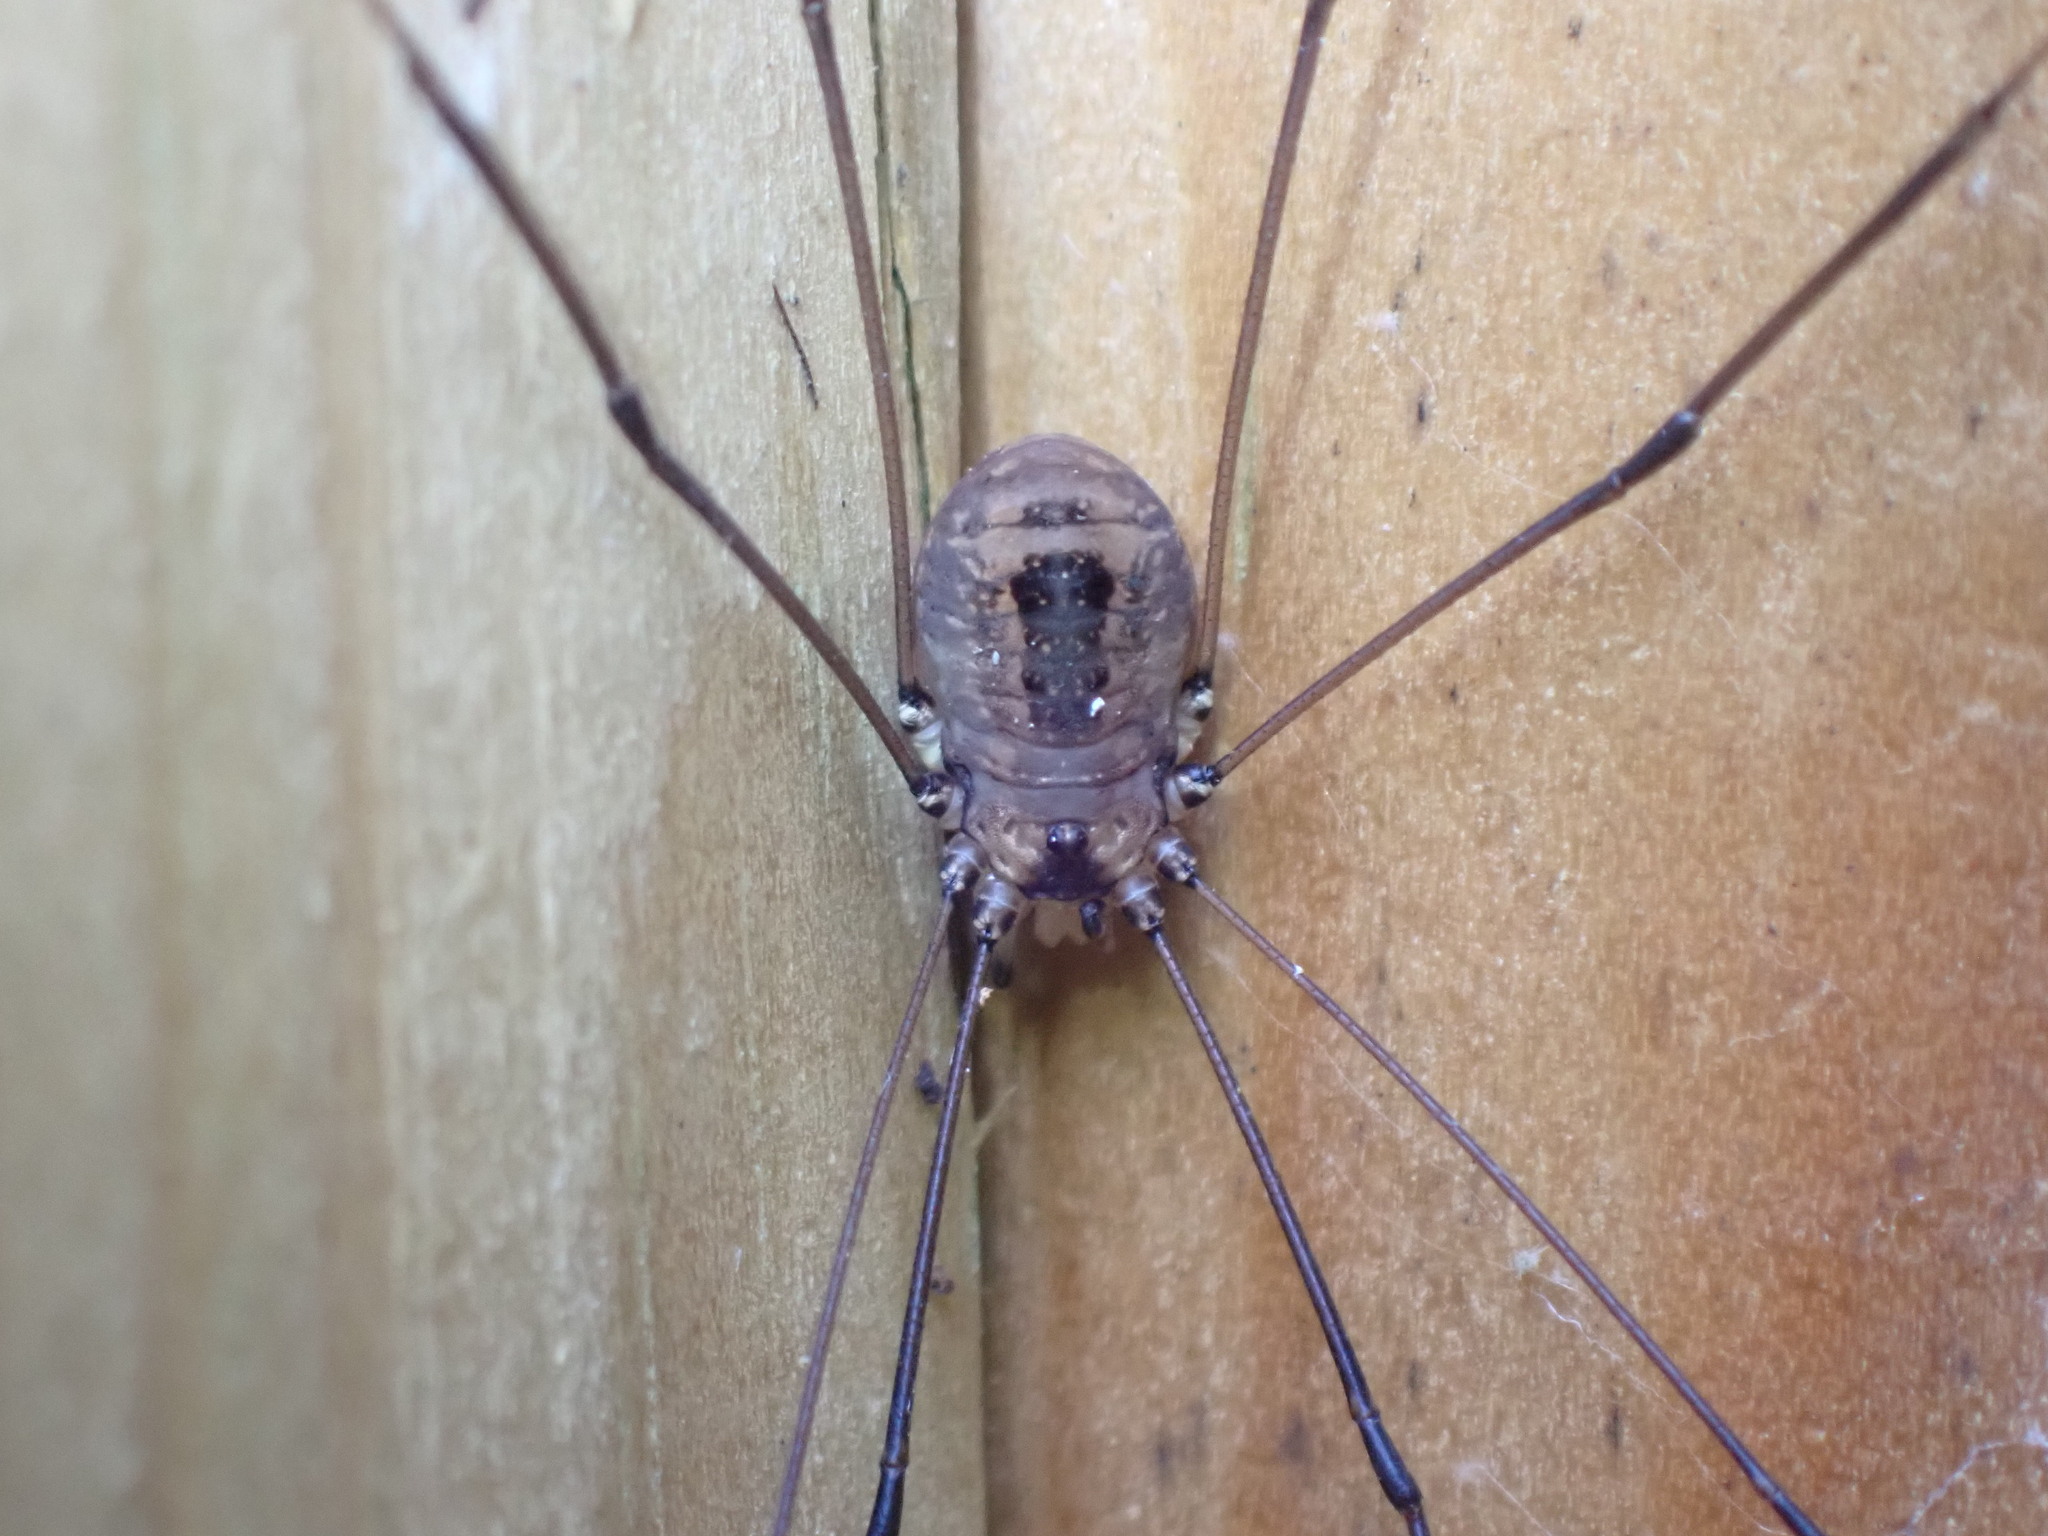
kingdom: Animalia
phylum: Arthropoda
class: Arachnida
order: Opiliones
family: Sclerosomatidae
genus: Leiobunum
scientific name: Leiobunum rotundum
